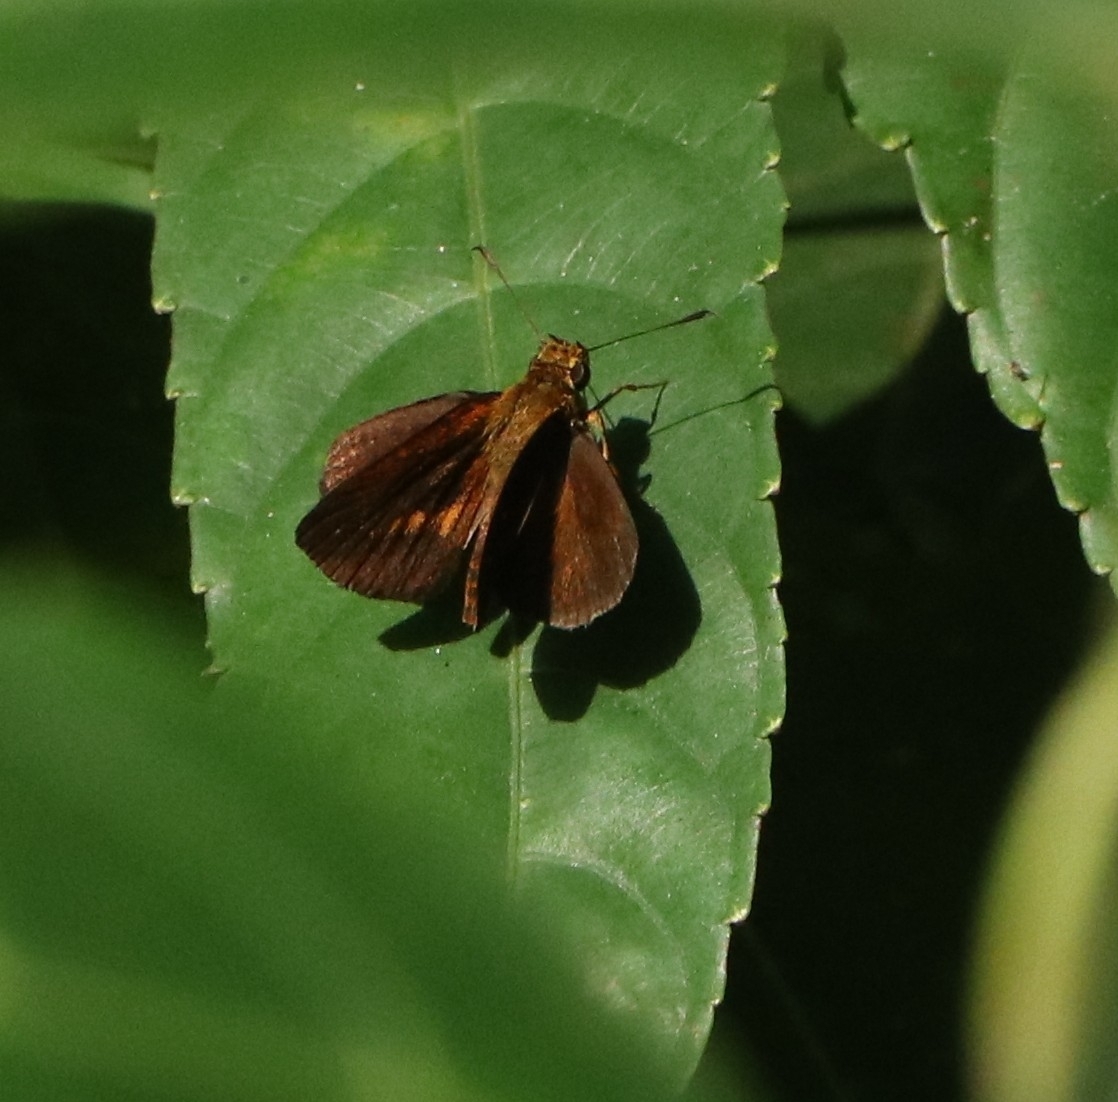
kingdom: Animalia
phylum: Arthropoda
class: Insecta
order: Lepidoptera
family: Hesperiidae
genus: Iambrix
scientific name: Iambrix salsala
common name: Chestnut bob
